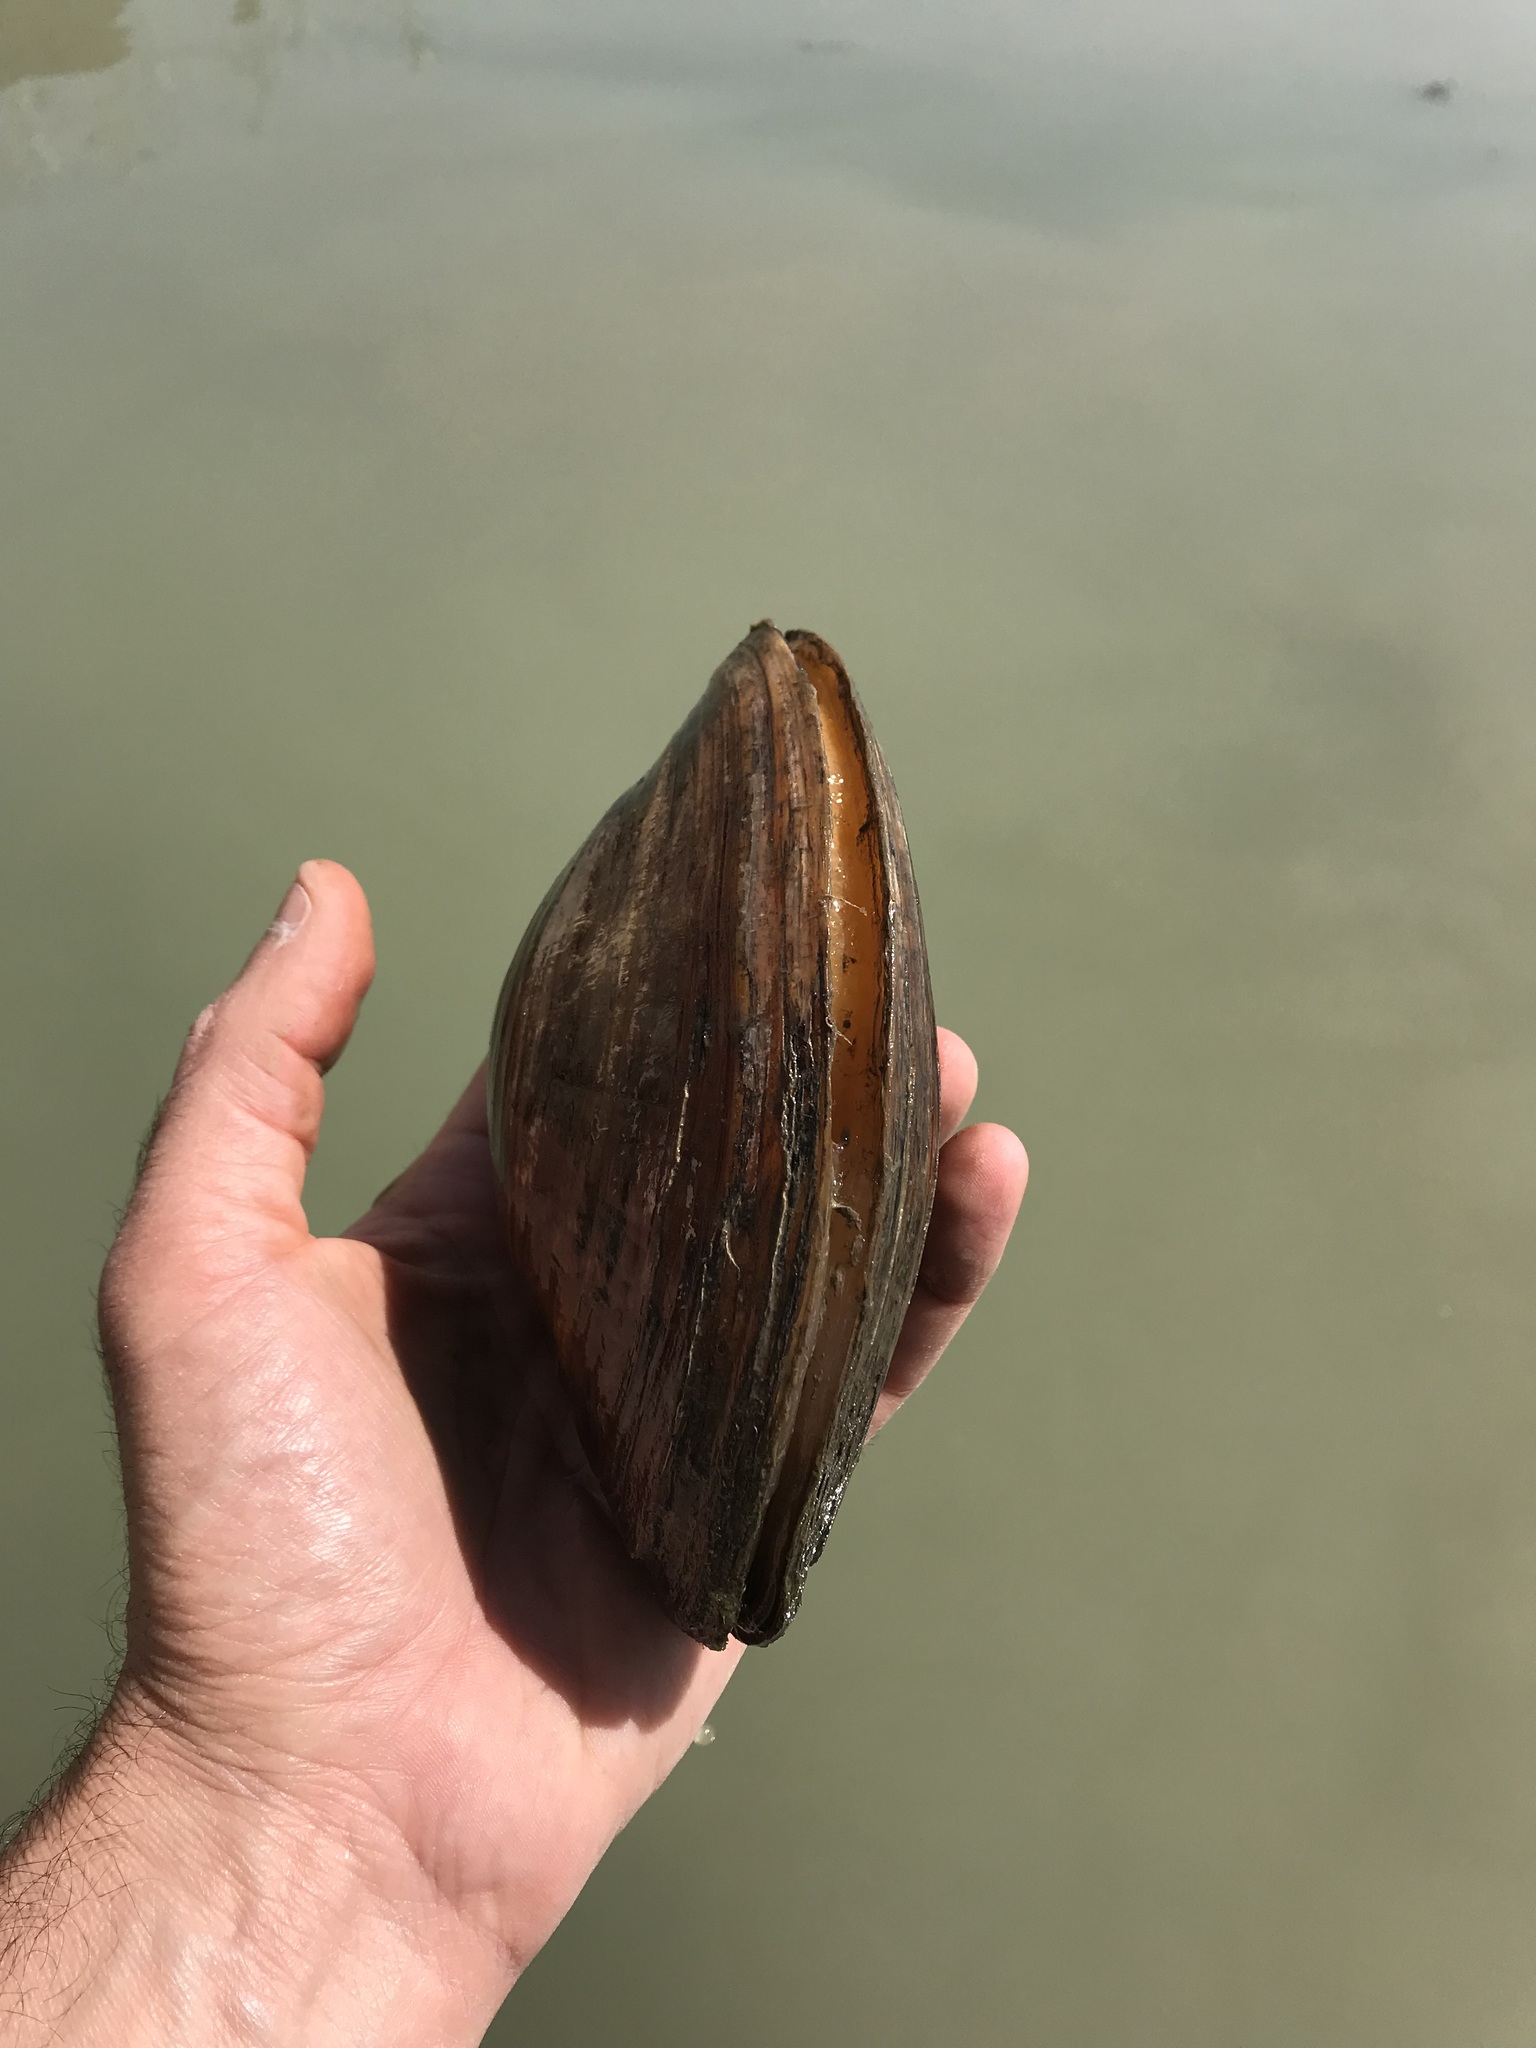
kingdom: Animalia
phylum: Mollusca
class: Bivalvia
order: Unionida
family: Unionidae
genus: Sinanodonta
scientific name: Sinanodonta woodiana
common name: Chinese pond mussel
